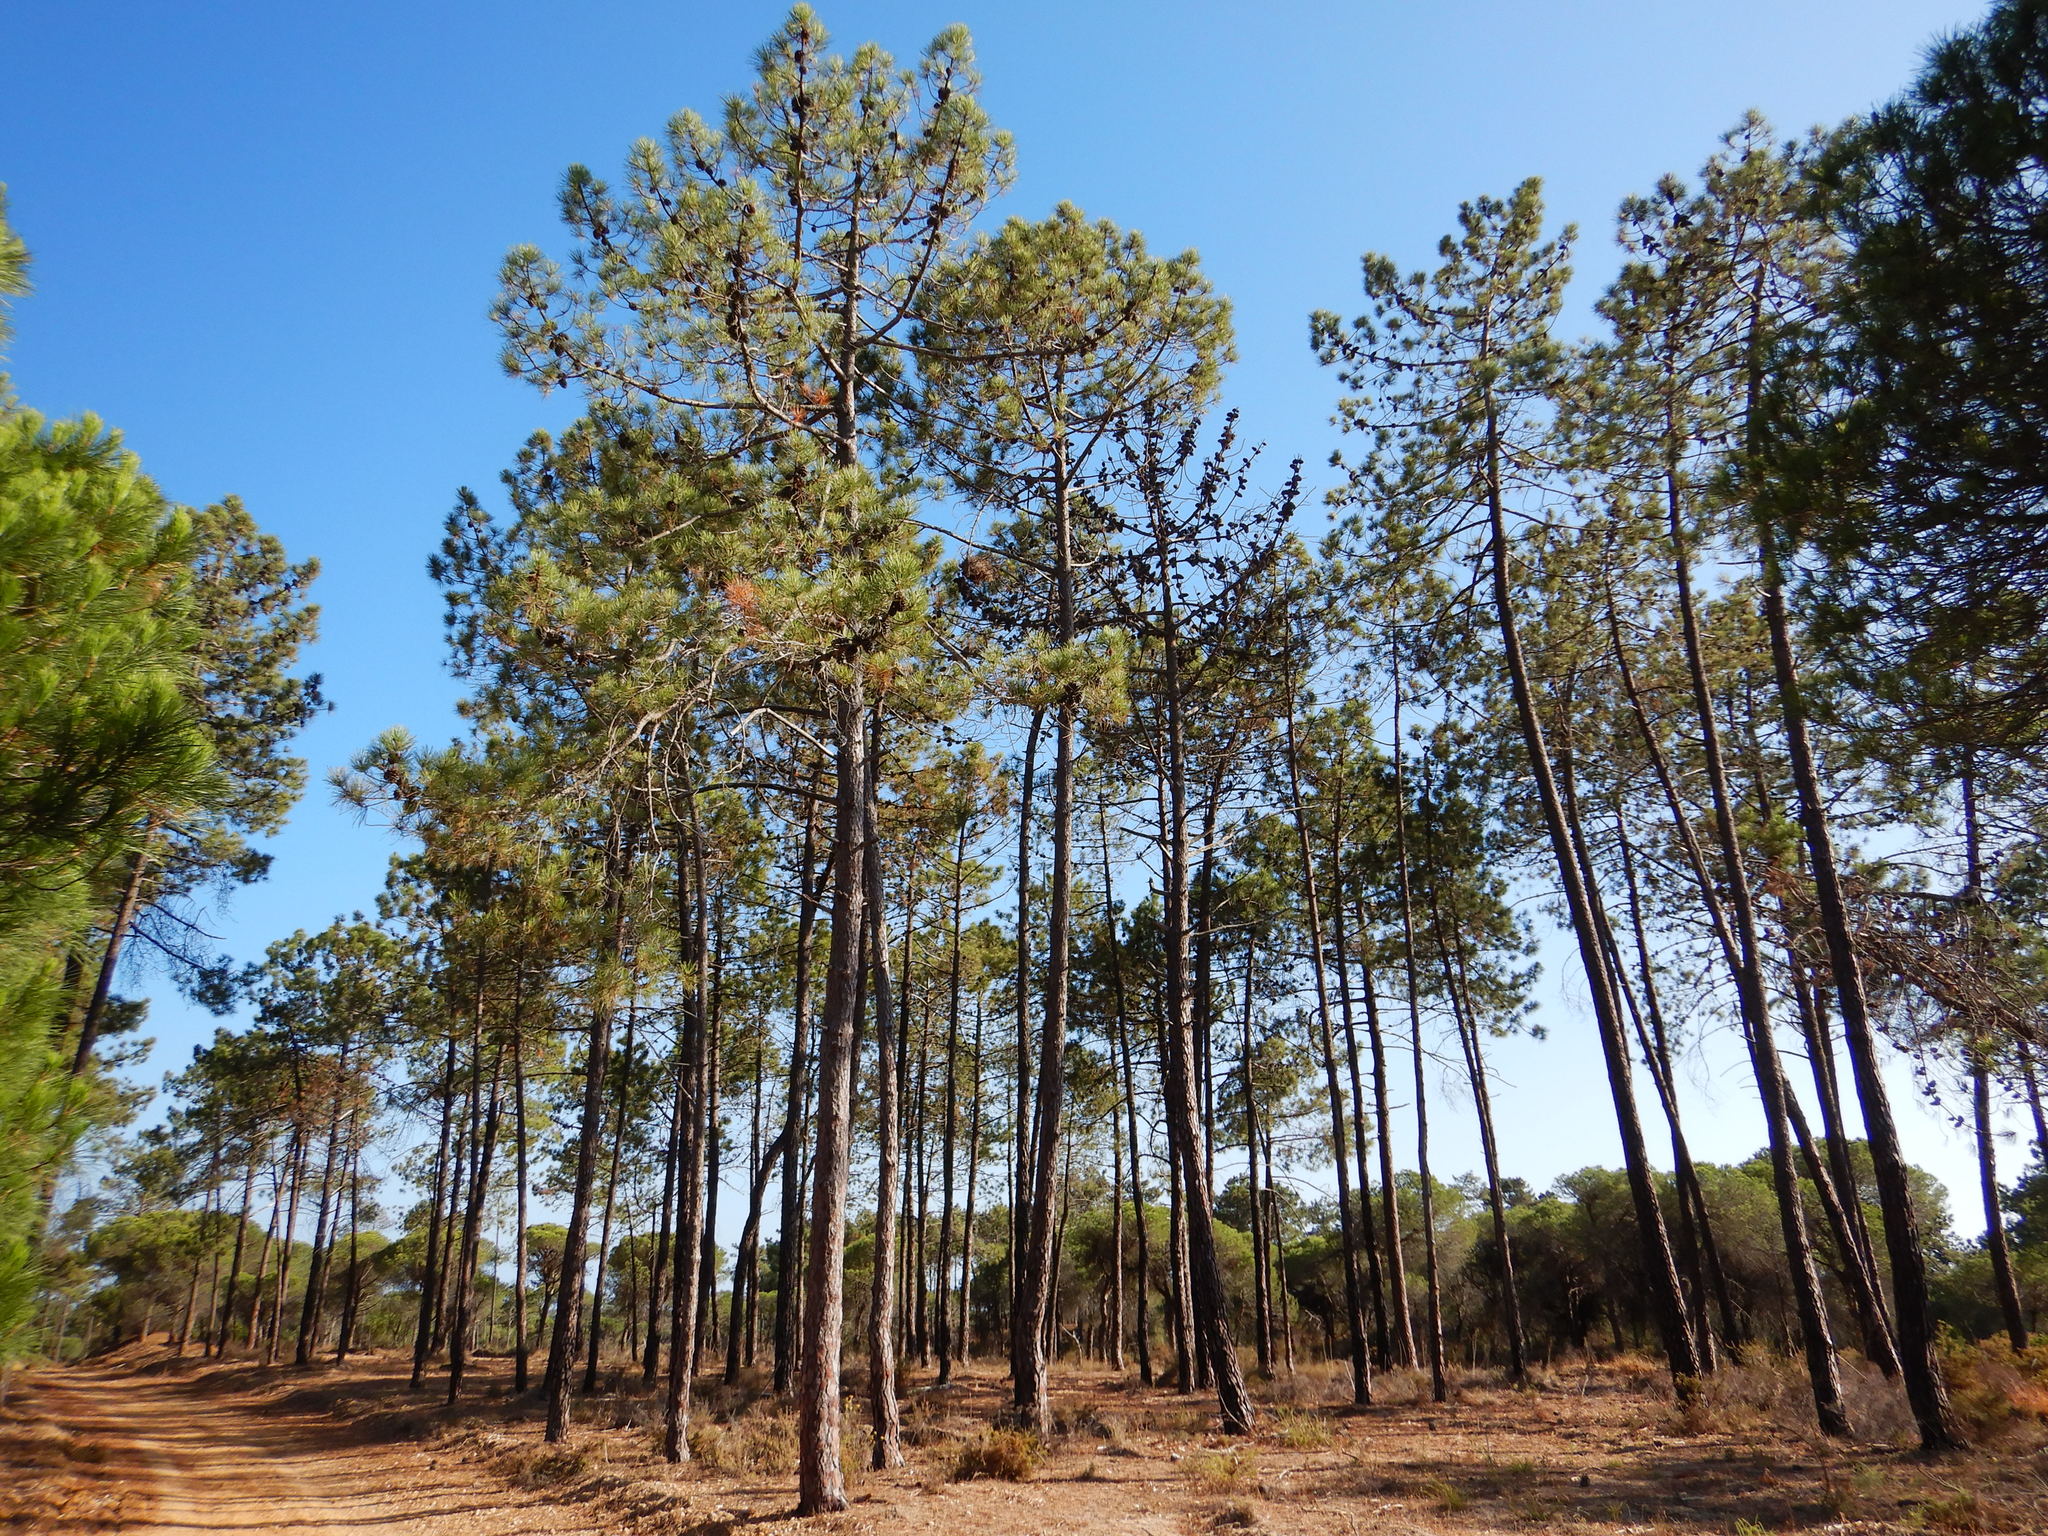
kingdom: Plantae
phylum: Tracheophyta
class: Pinopsida
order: Pinales
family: Pinaceae
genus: Pinus
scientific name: Pinus pinaster
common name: Maritime pine
